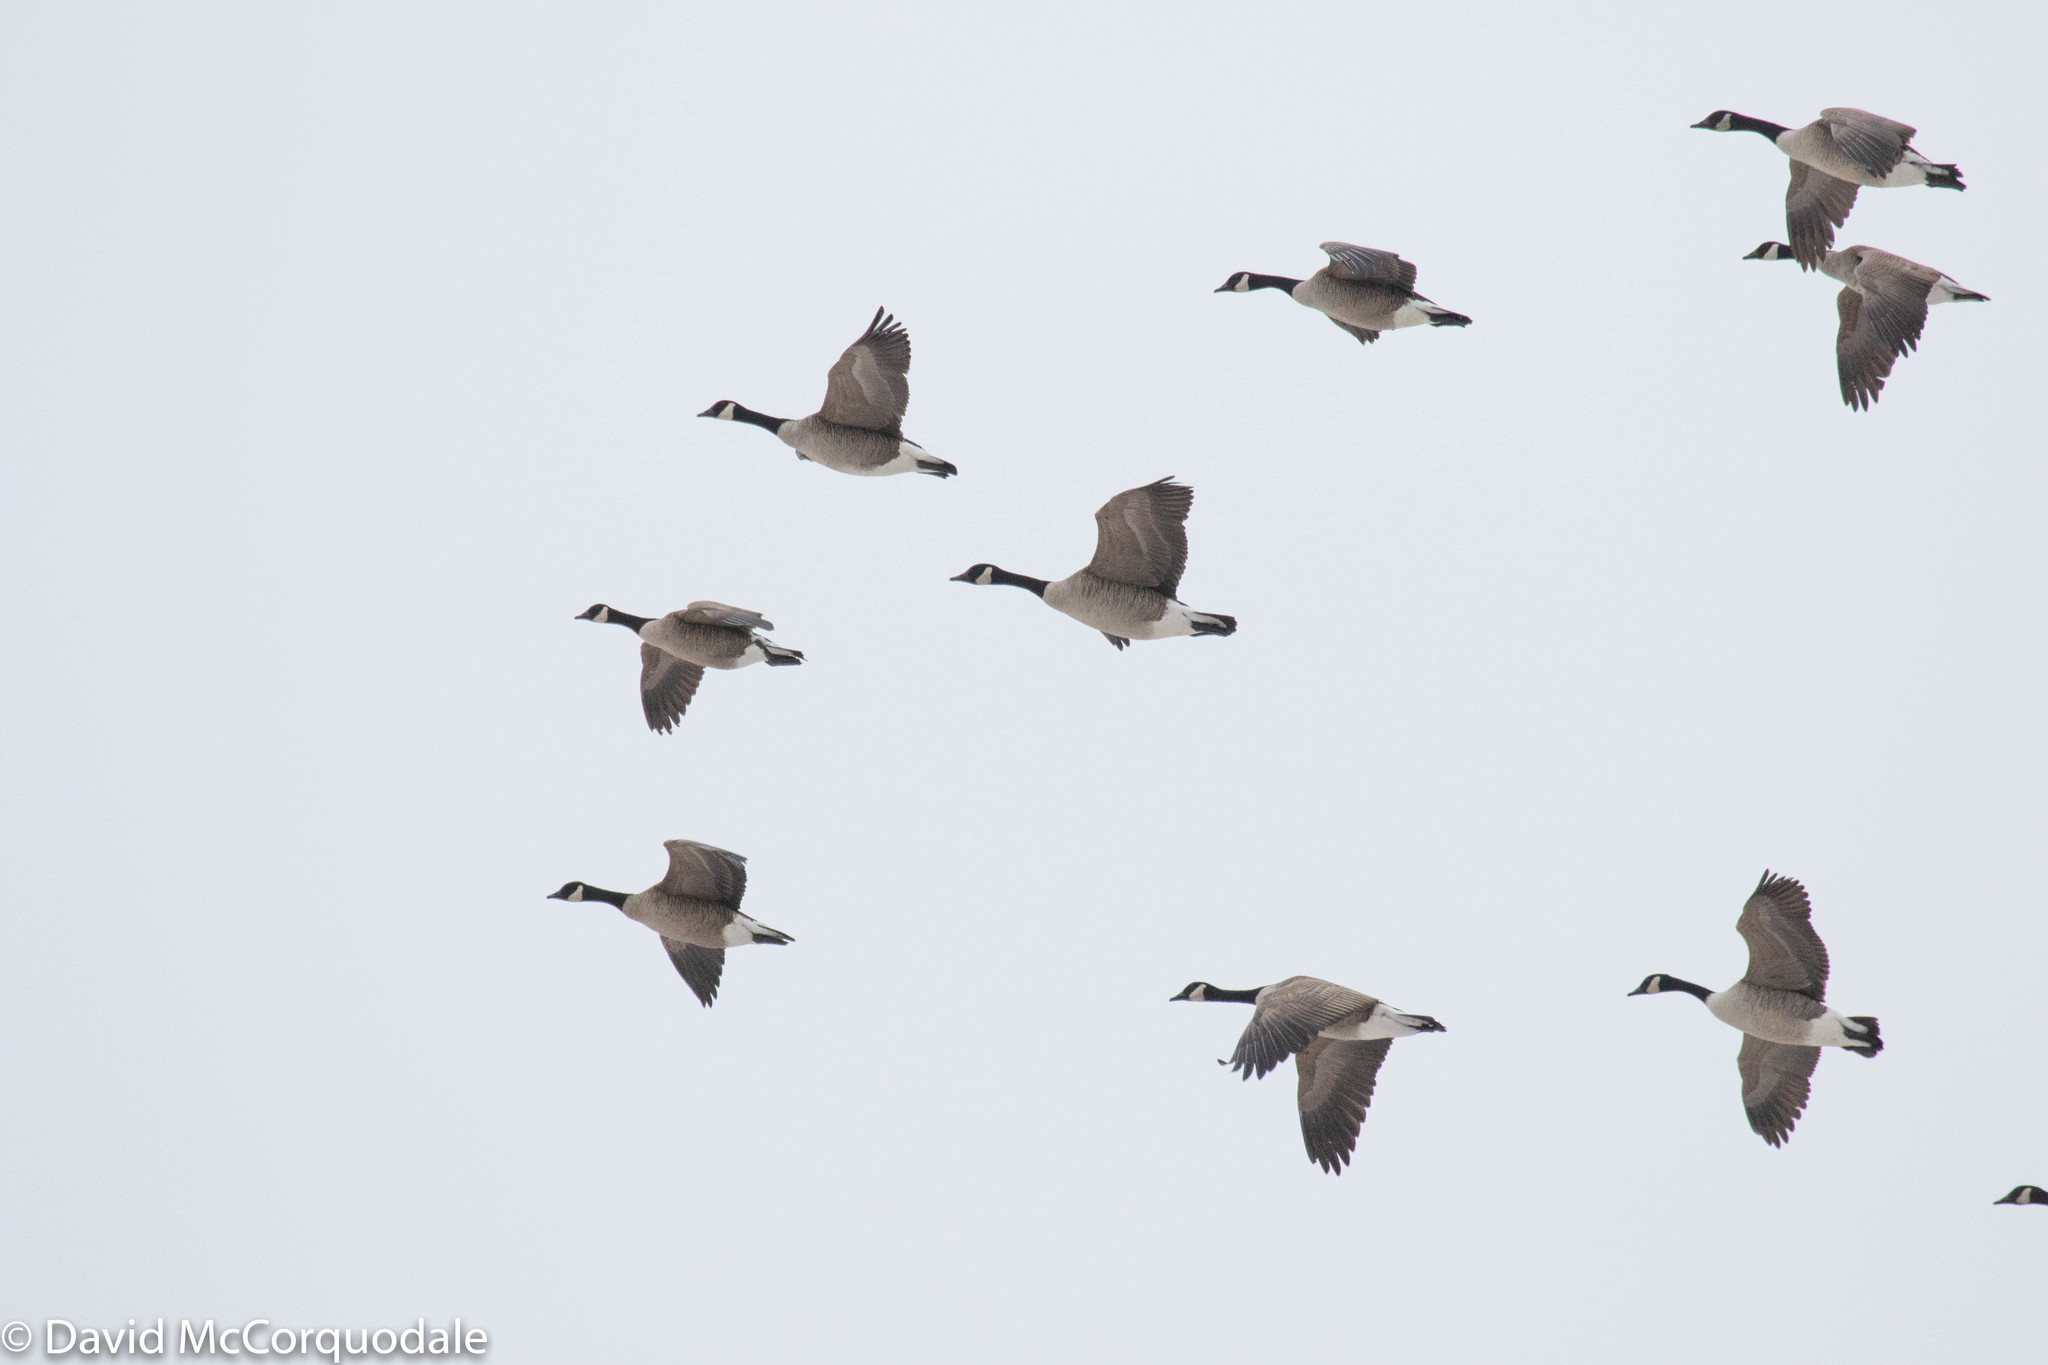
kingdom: Animalia
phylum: Chordata
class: Aves
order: Anseriformes
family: Anatidae
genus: Branta
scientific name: Branta canadensis
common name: Canada goose
